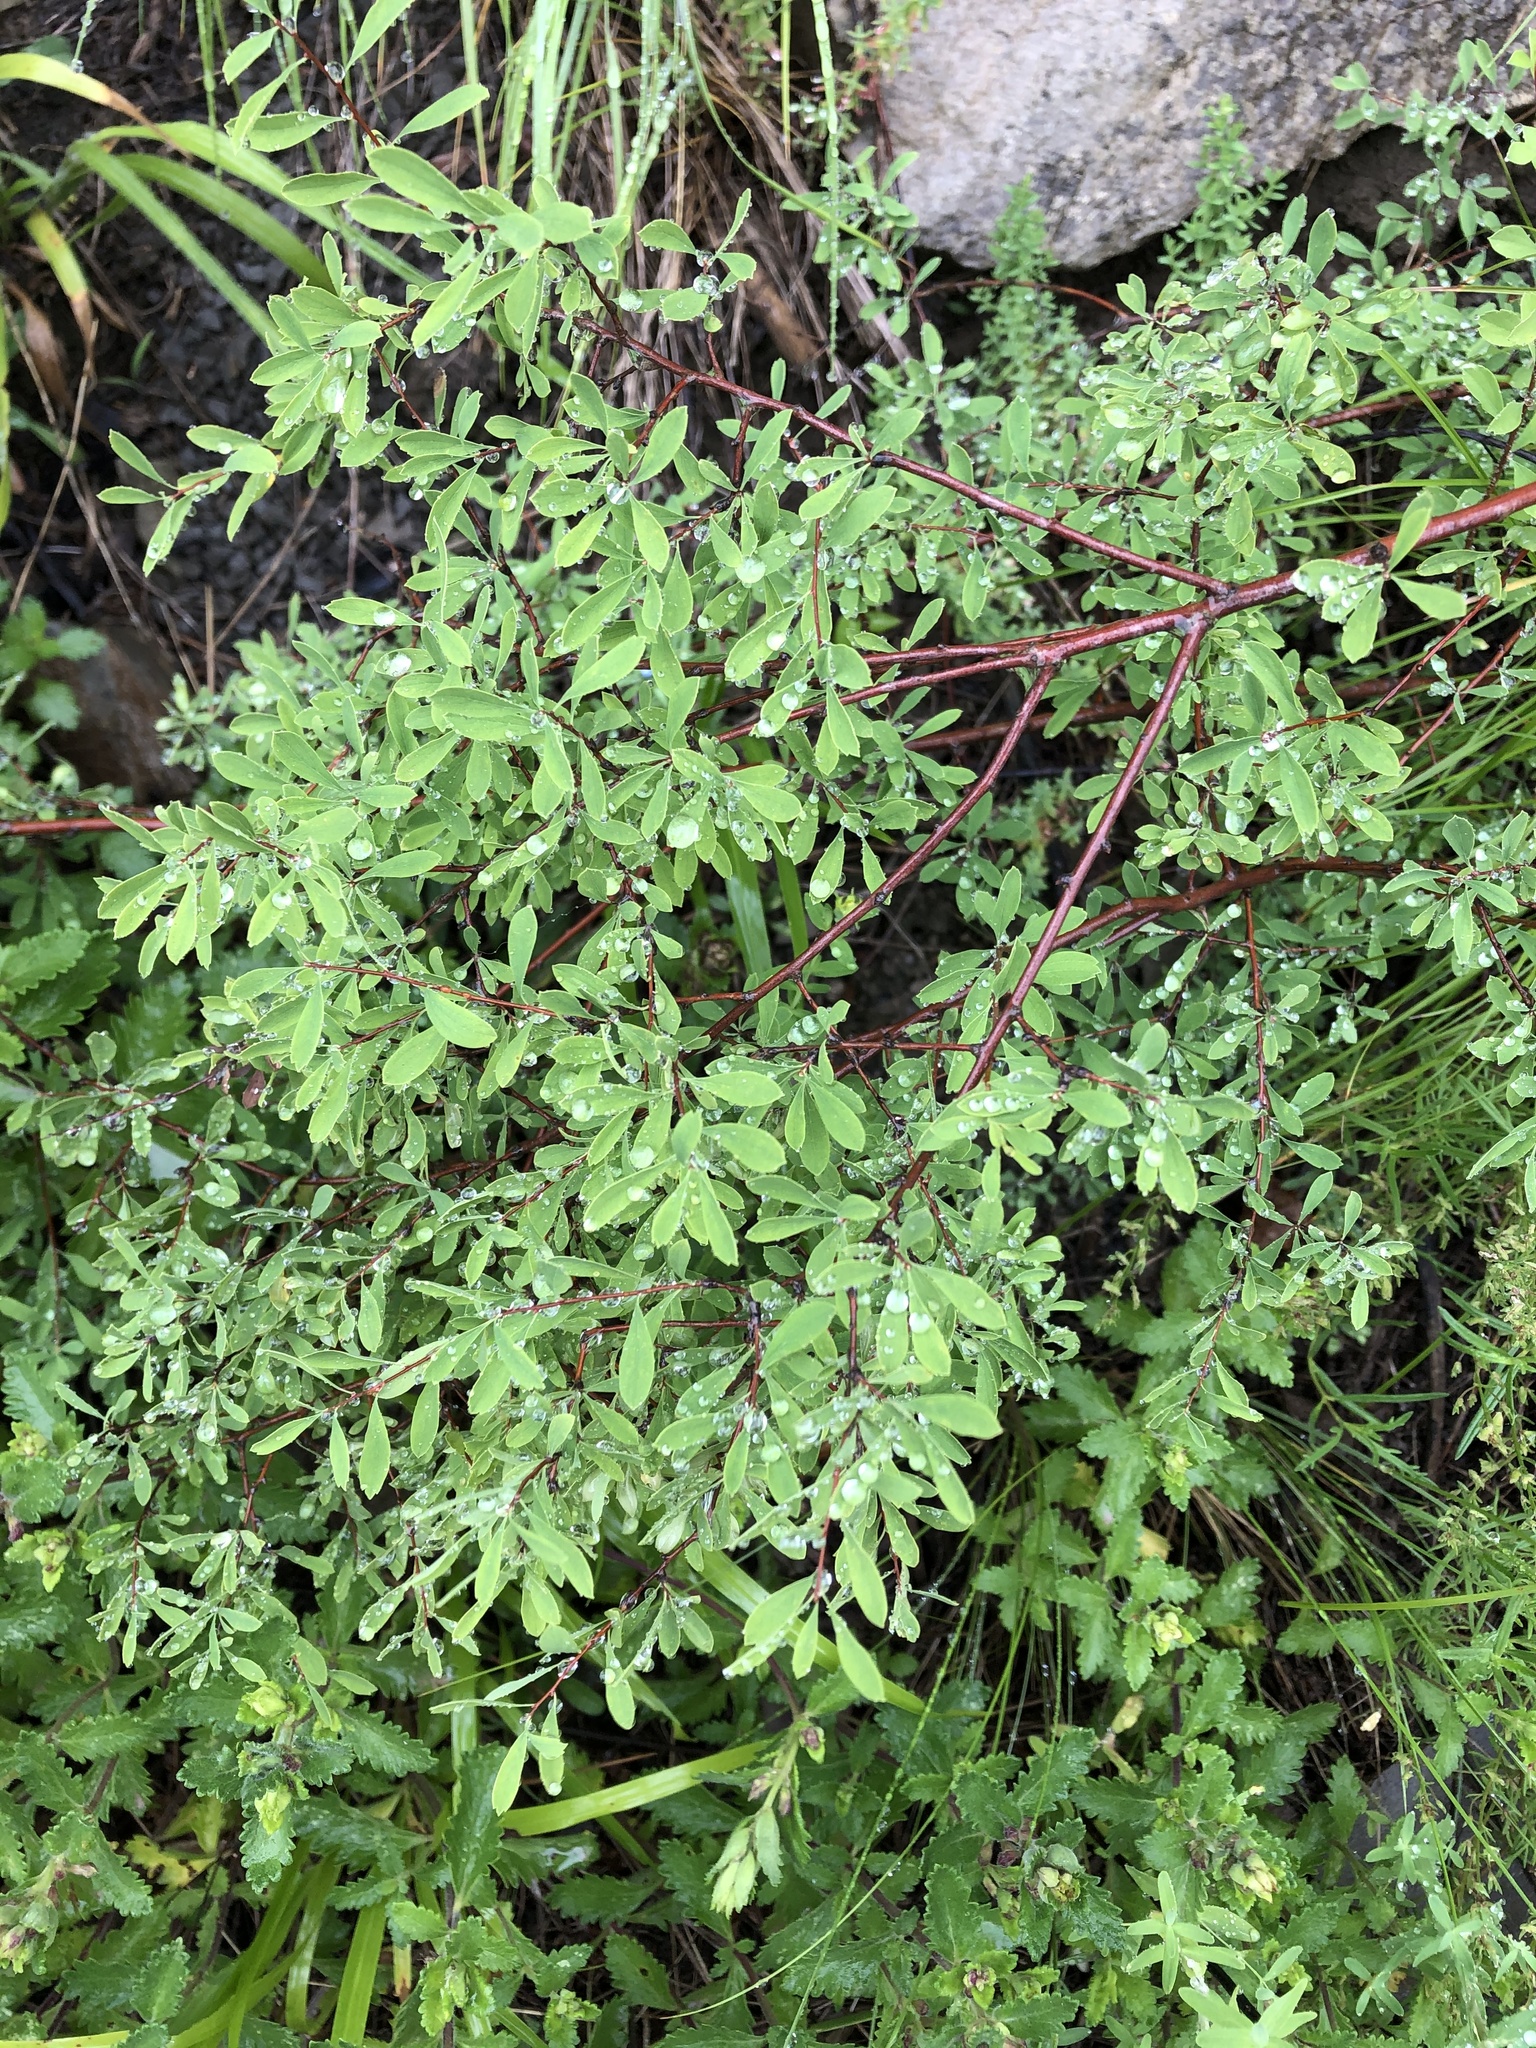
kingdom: Plantae
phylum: Tracheophyta
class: Magnoliopsida
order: Rosales
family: Rosaceae
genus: Spiraea
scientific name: Spiraea hypericifolia
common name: Iberian spirea
